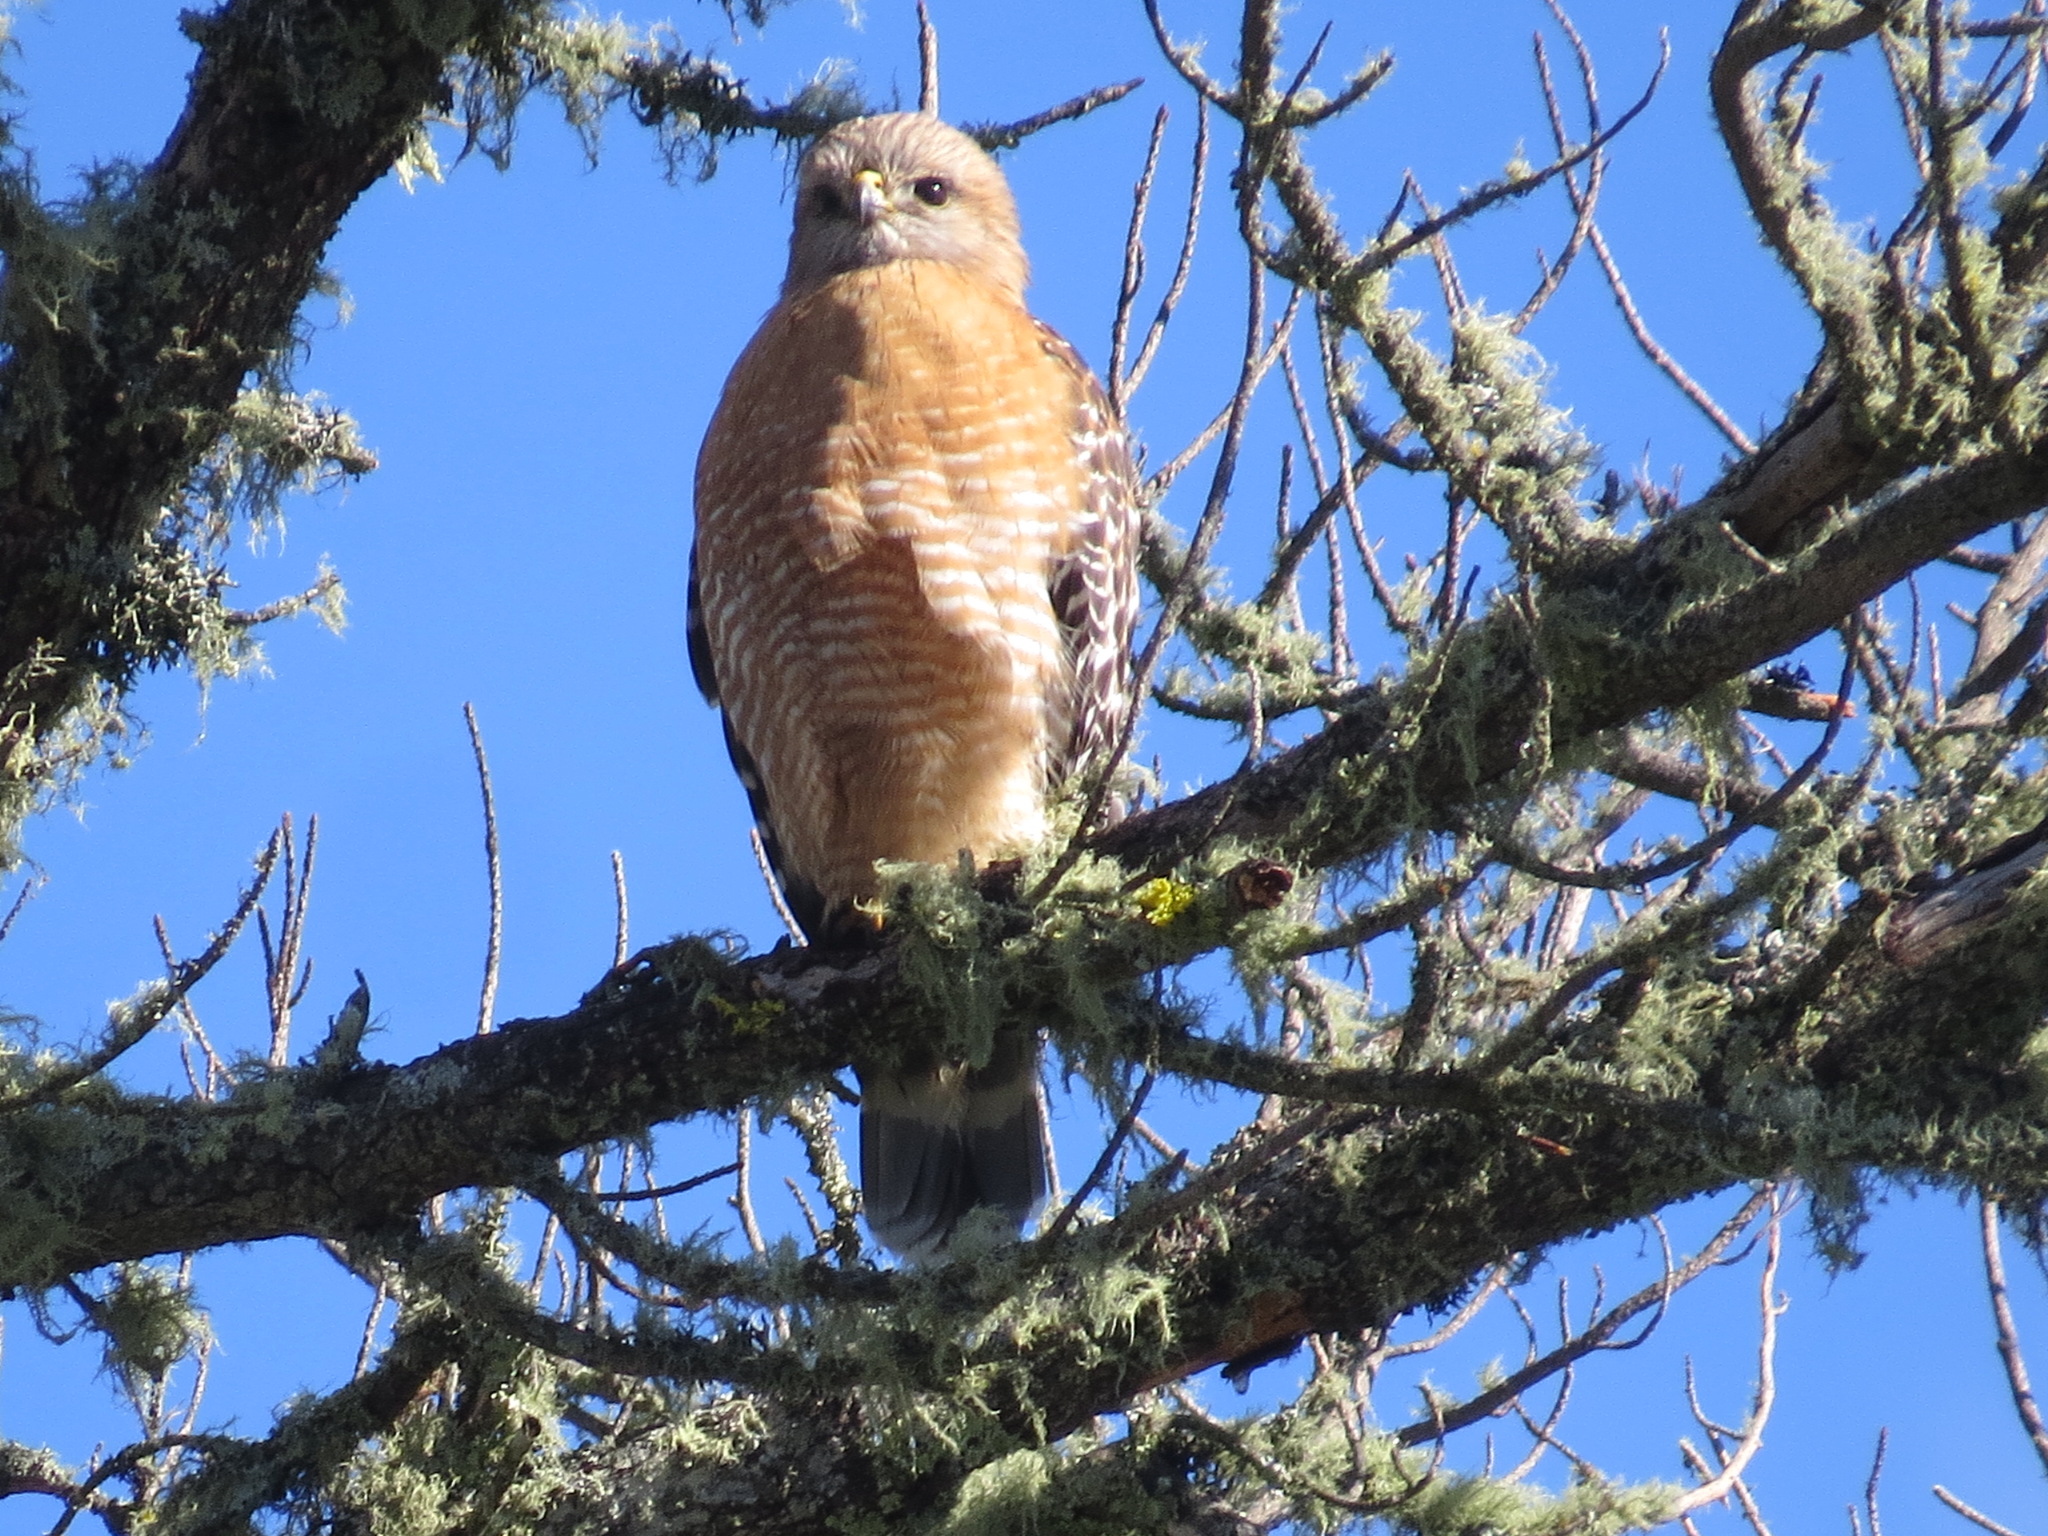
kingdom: Animalia
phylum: Chordata
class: Aves
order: Accipitriformes
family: Accipitridae
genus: Buteo
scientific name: Buteo lineatus
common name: Red-shouldered hawk
